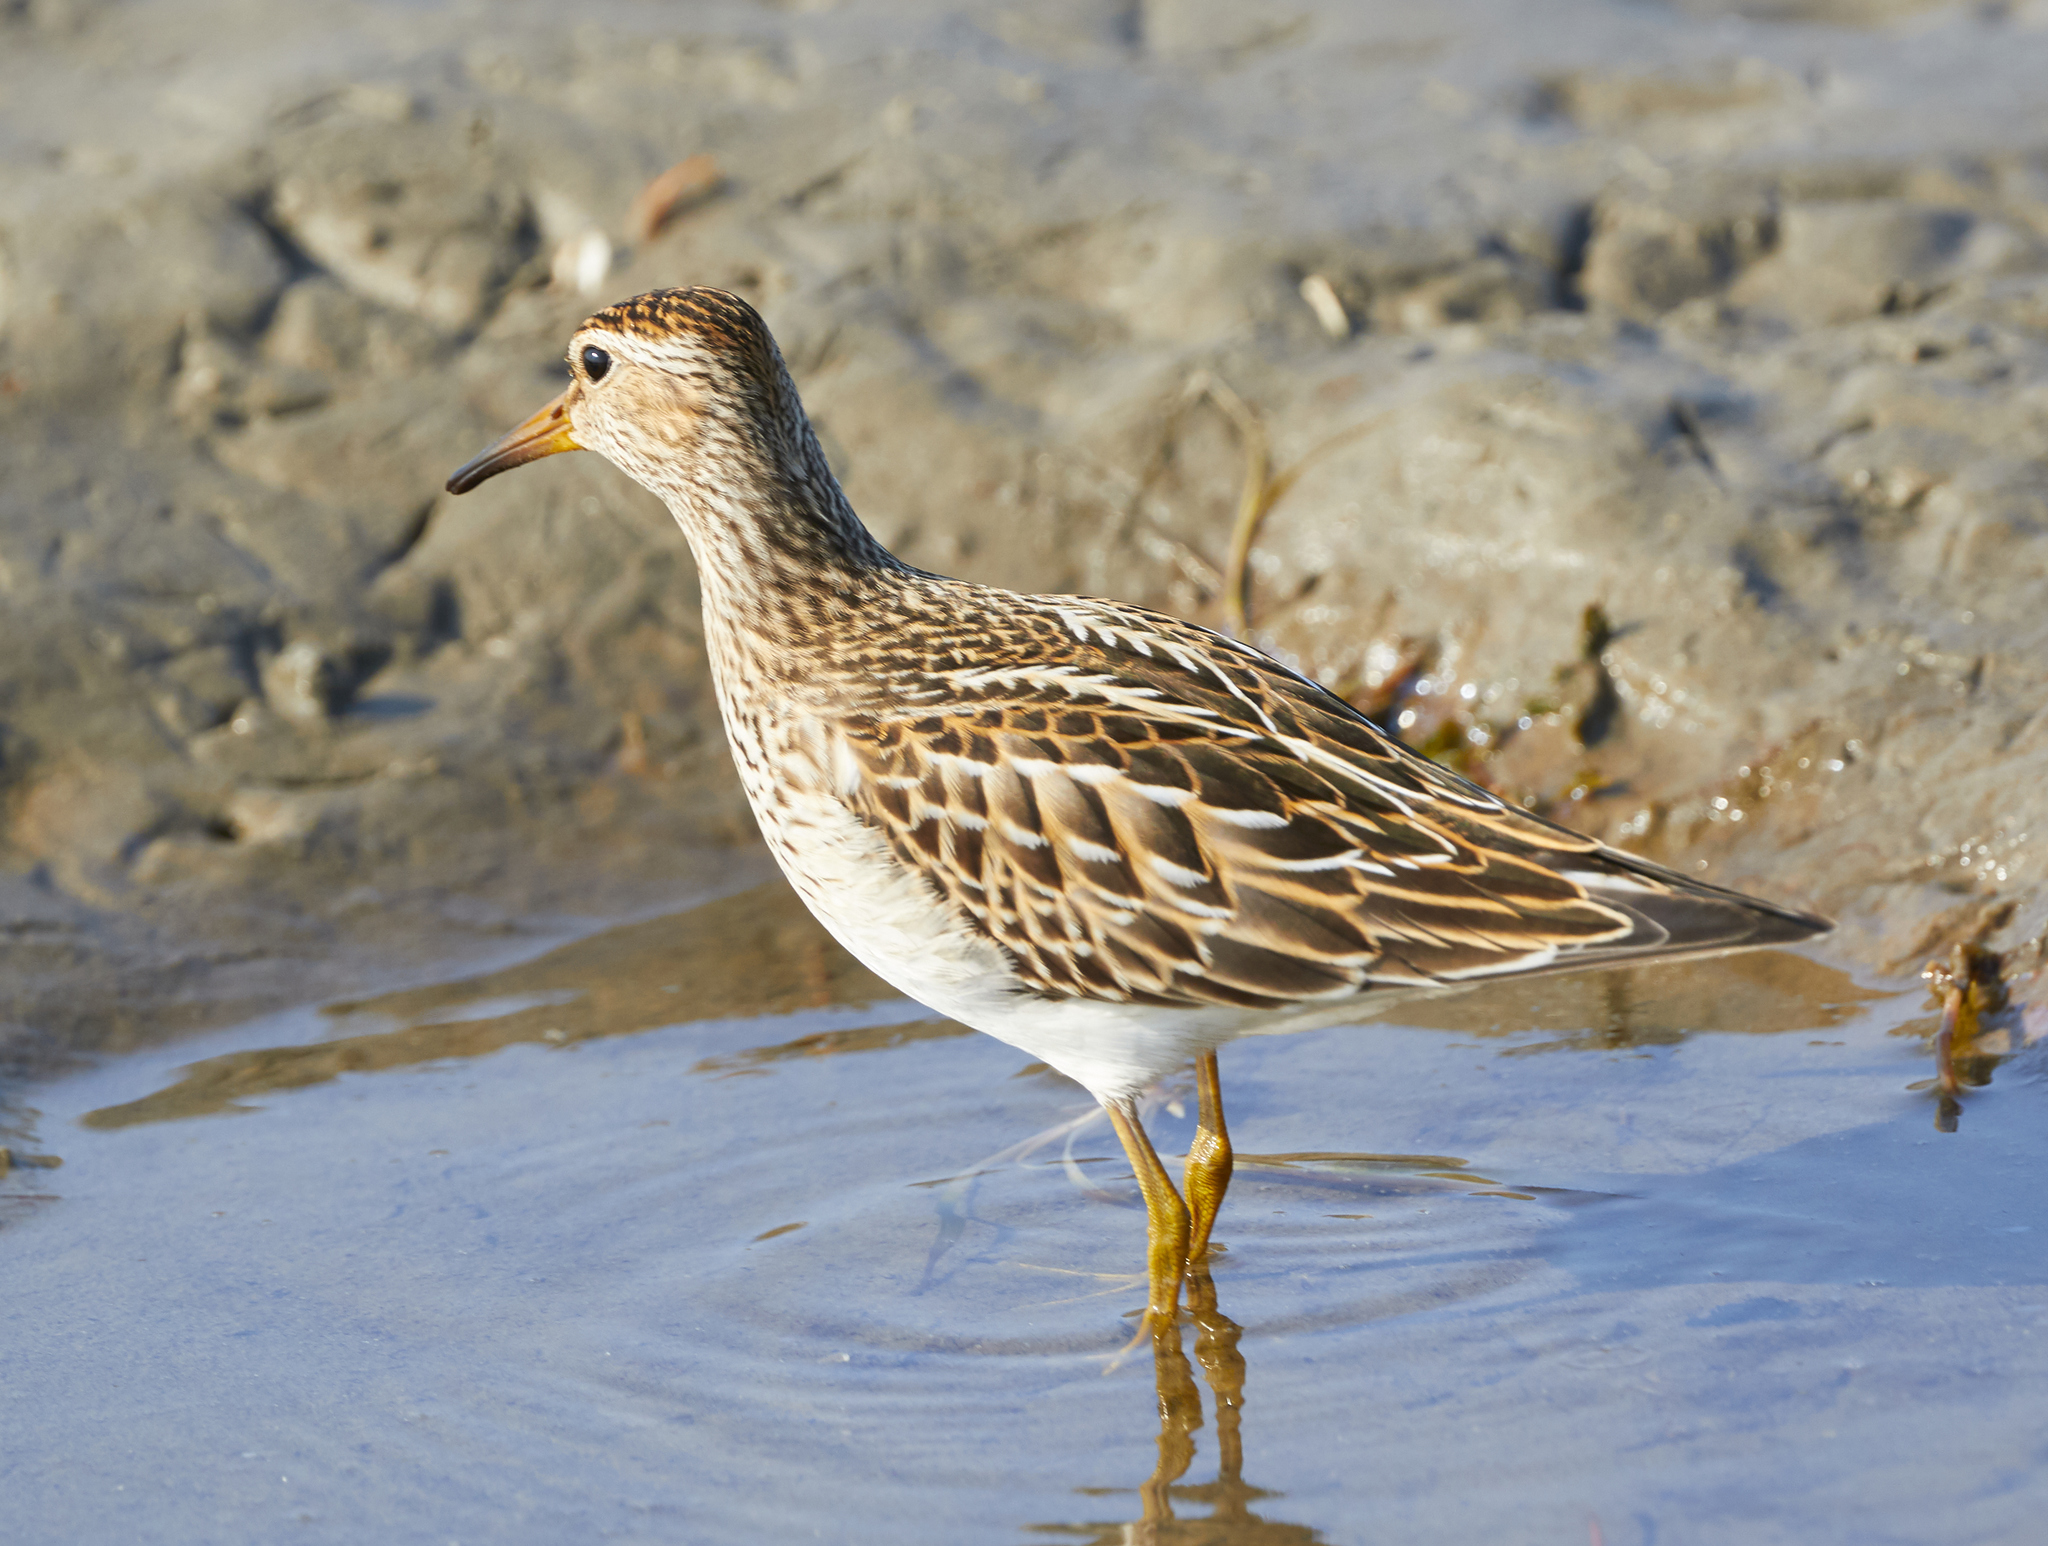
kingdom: Animalia
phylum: Chordata
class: Aves
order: Charadriiformes
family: Scolopacidae
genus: Calidris
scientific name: Calidris melanotos
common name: Pectoral sandpiper
